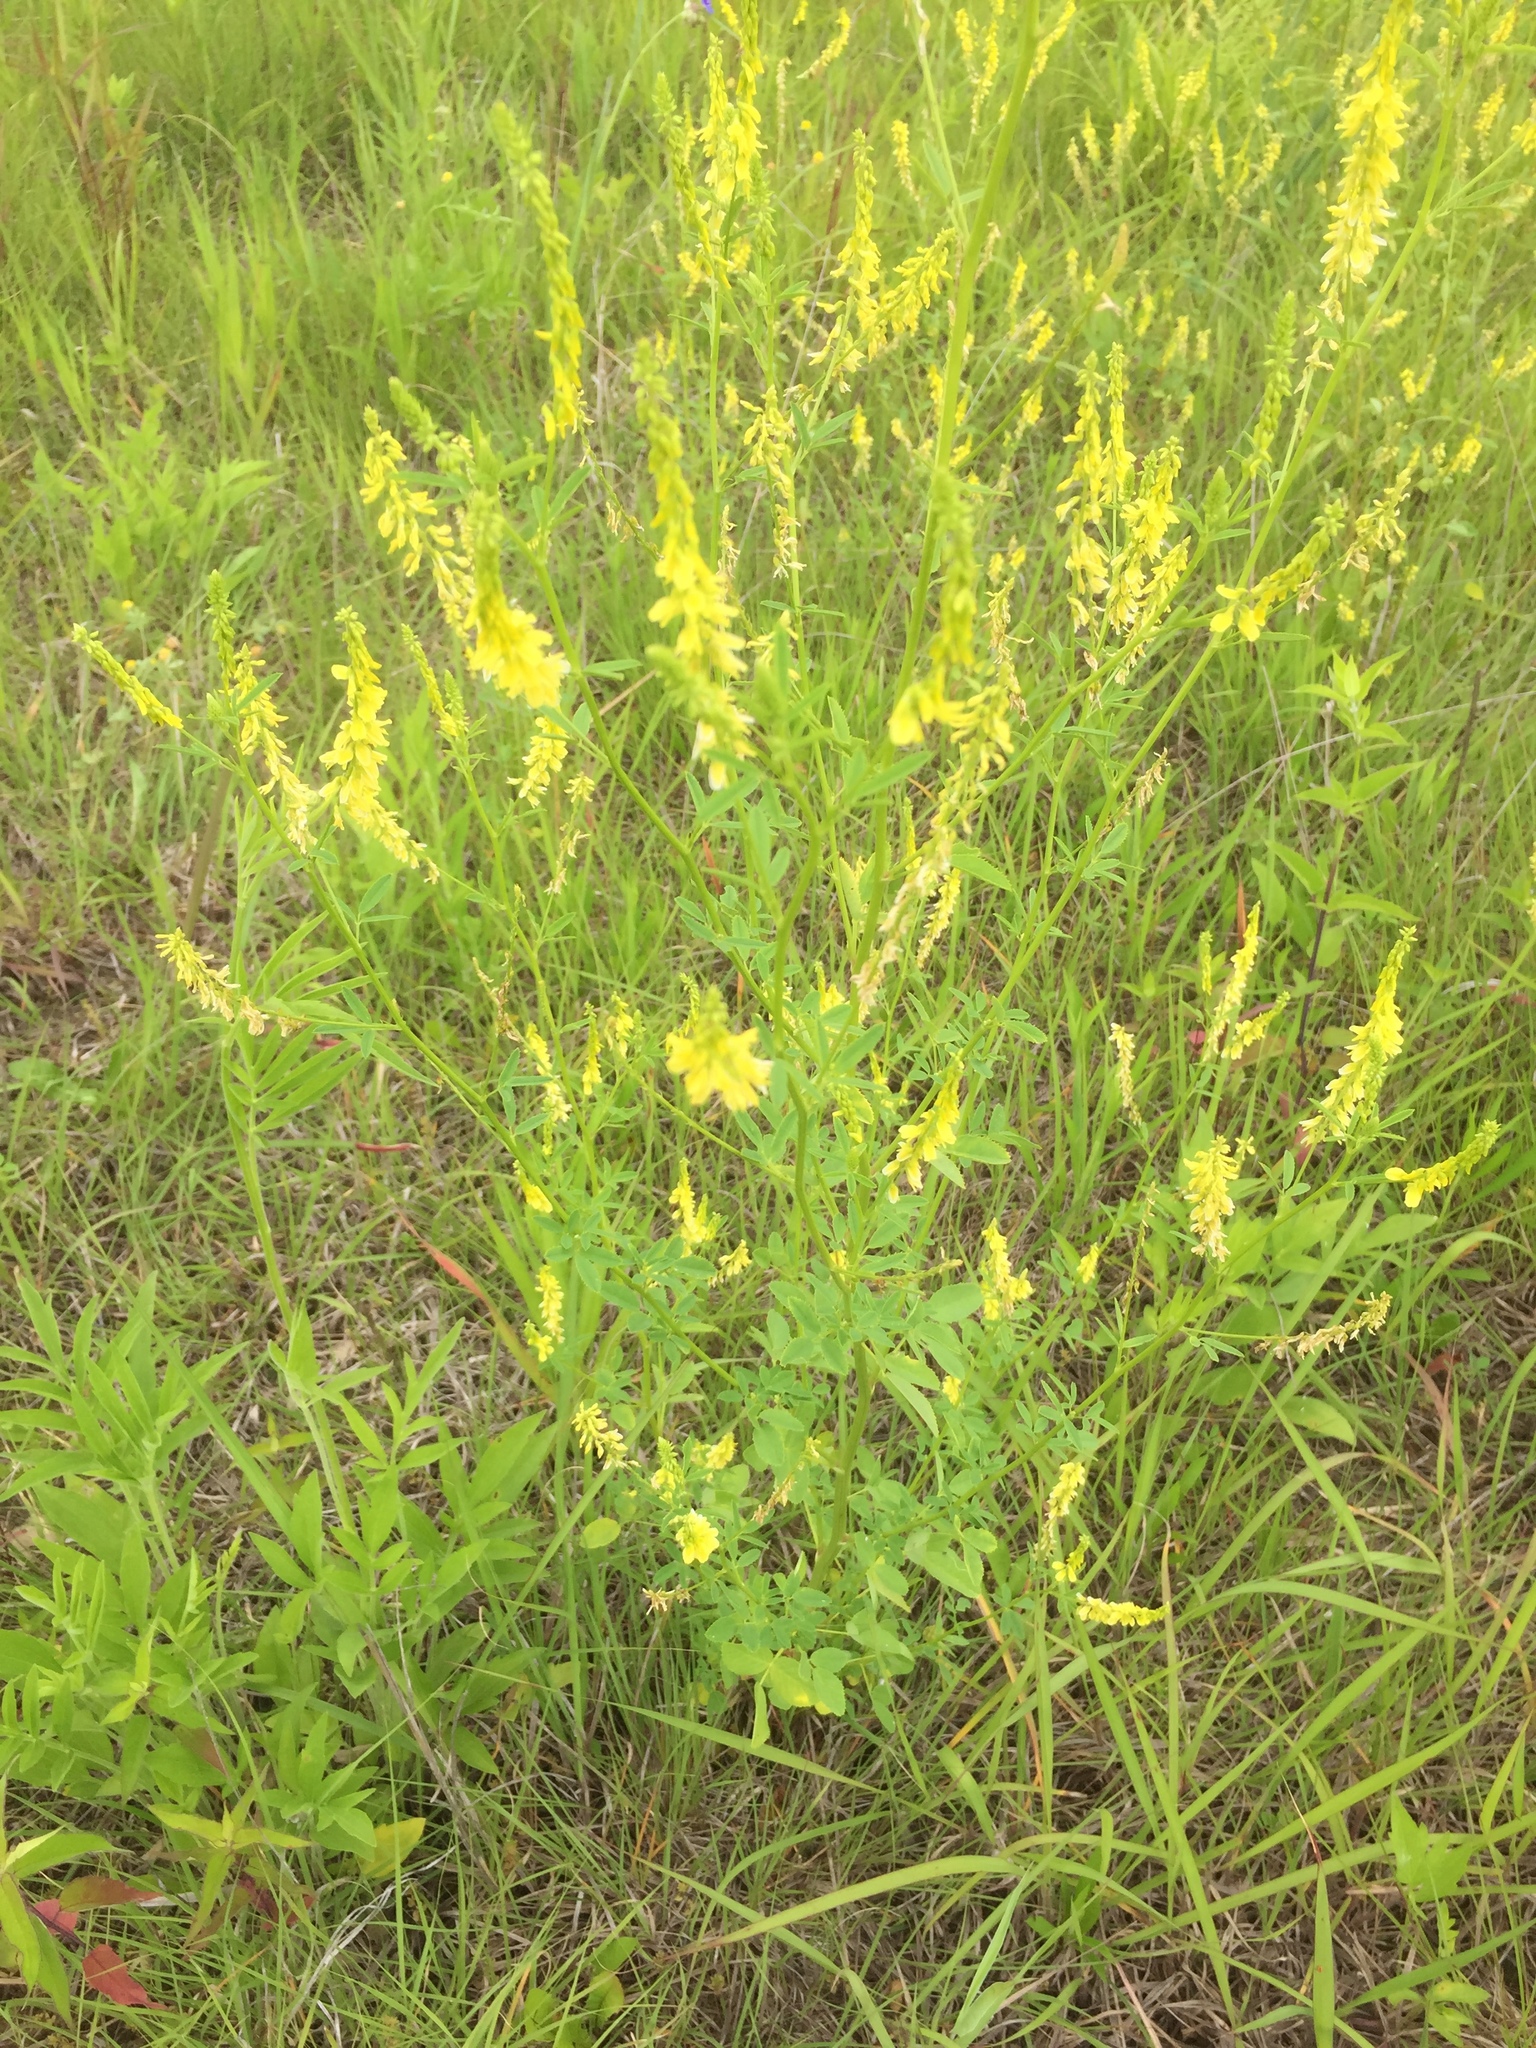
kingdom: Plantae
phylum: Tracheophyta
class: Magnoliopsida
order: Fabales
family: Fabaceae
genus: Melilotus
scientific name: Melilotus officinalis
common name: Sweetclover
